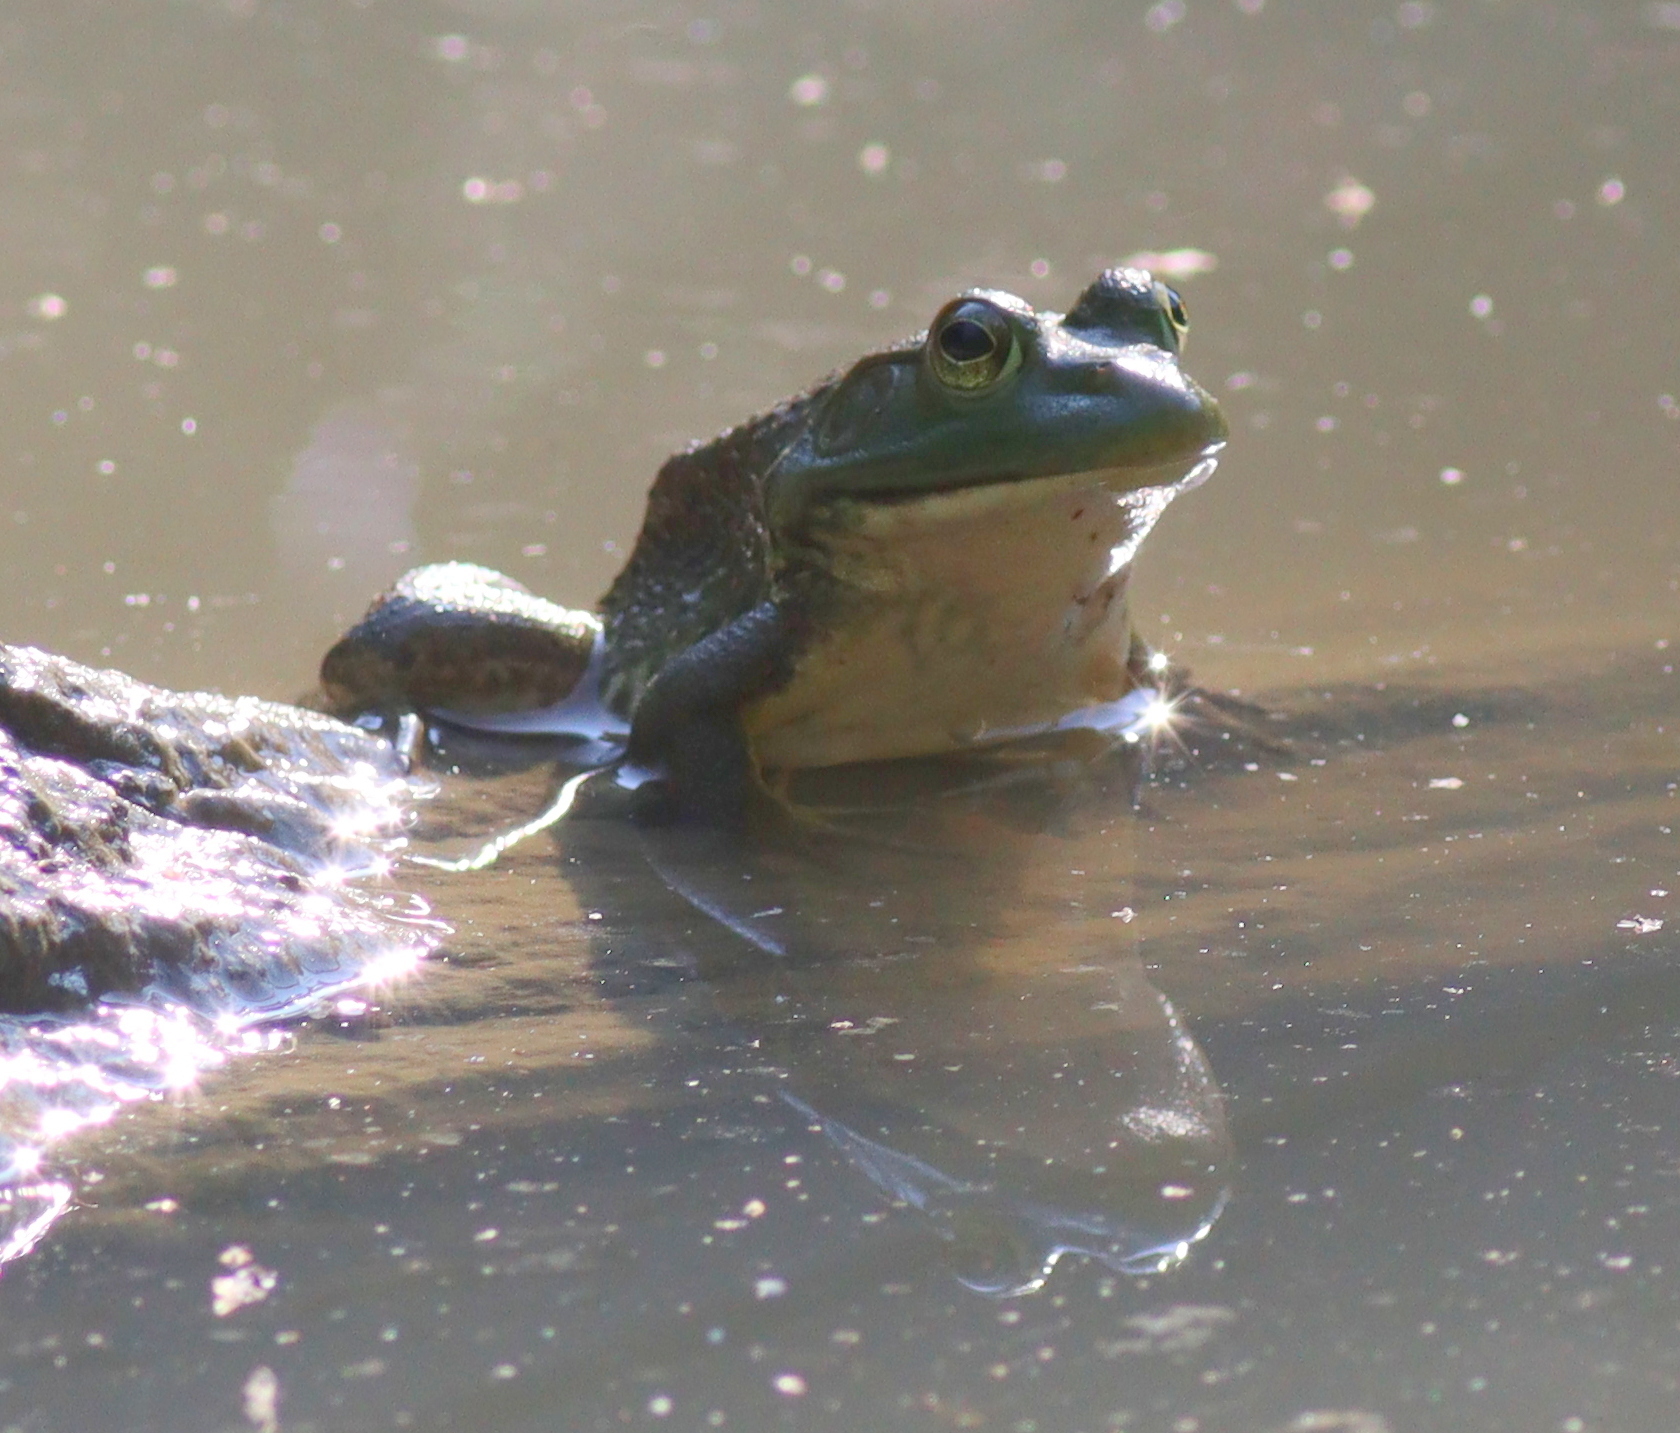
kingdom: Animalia
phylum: Chordata
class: Amphibia
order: Anura
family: Ranidae
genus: Lithobates
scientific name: Lithobates catesbeianus
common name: American bullfrog
